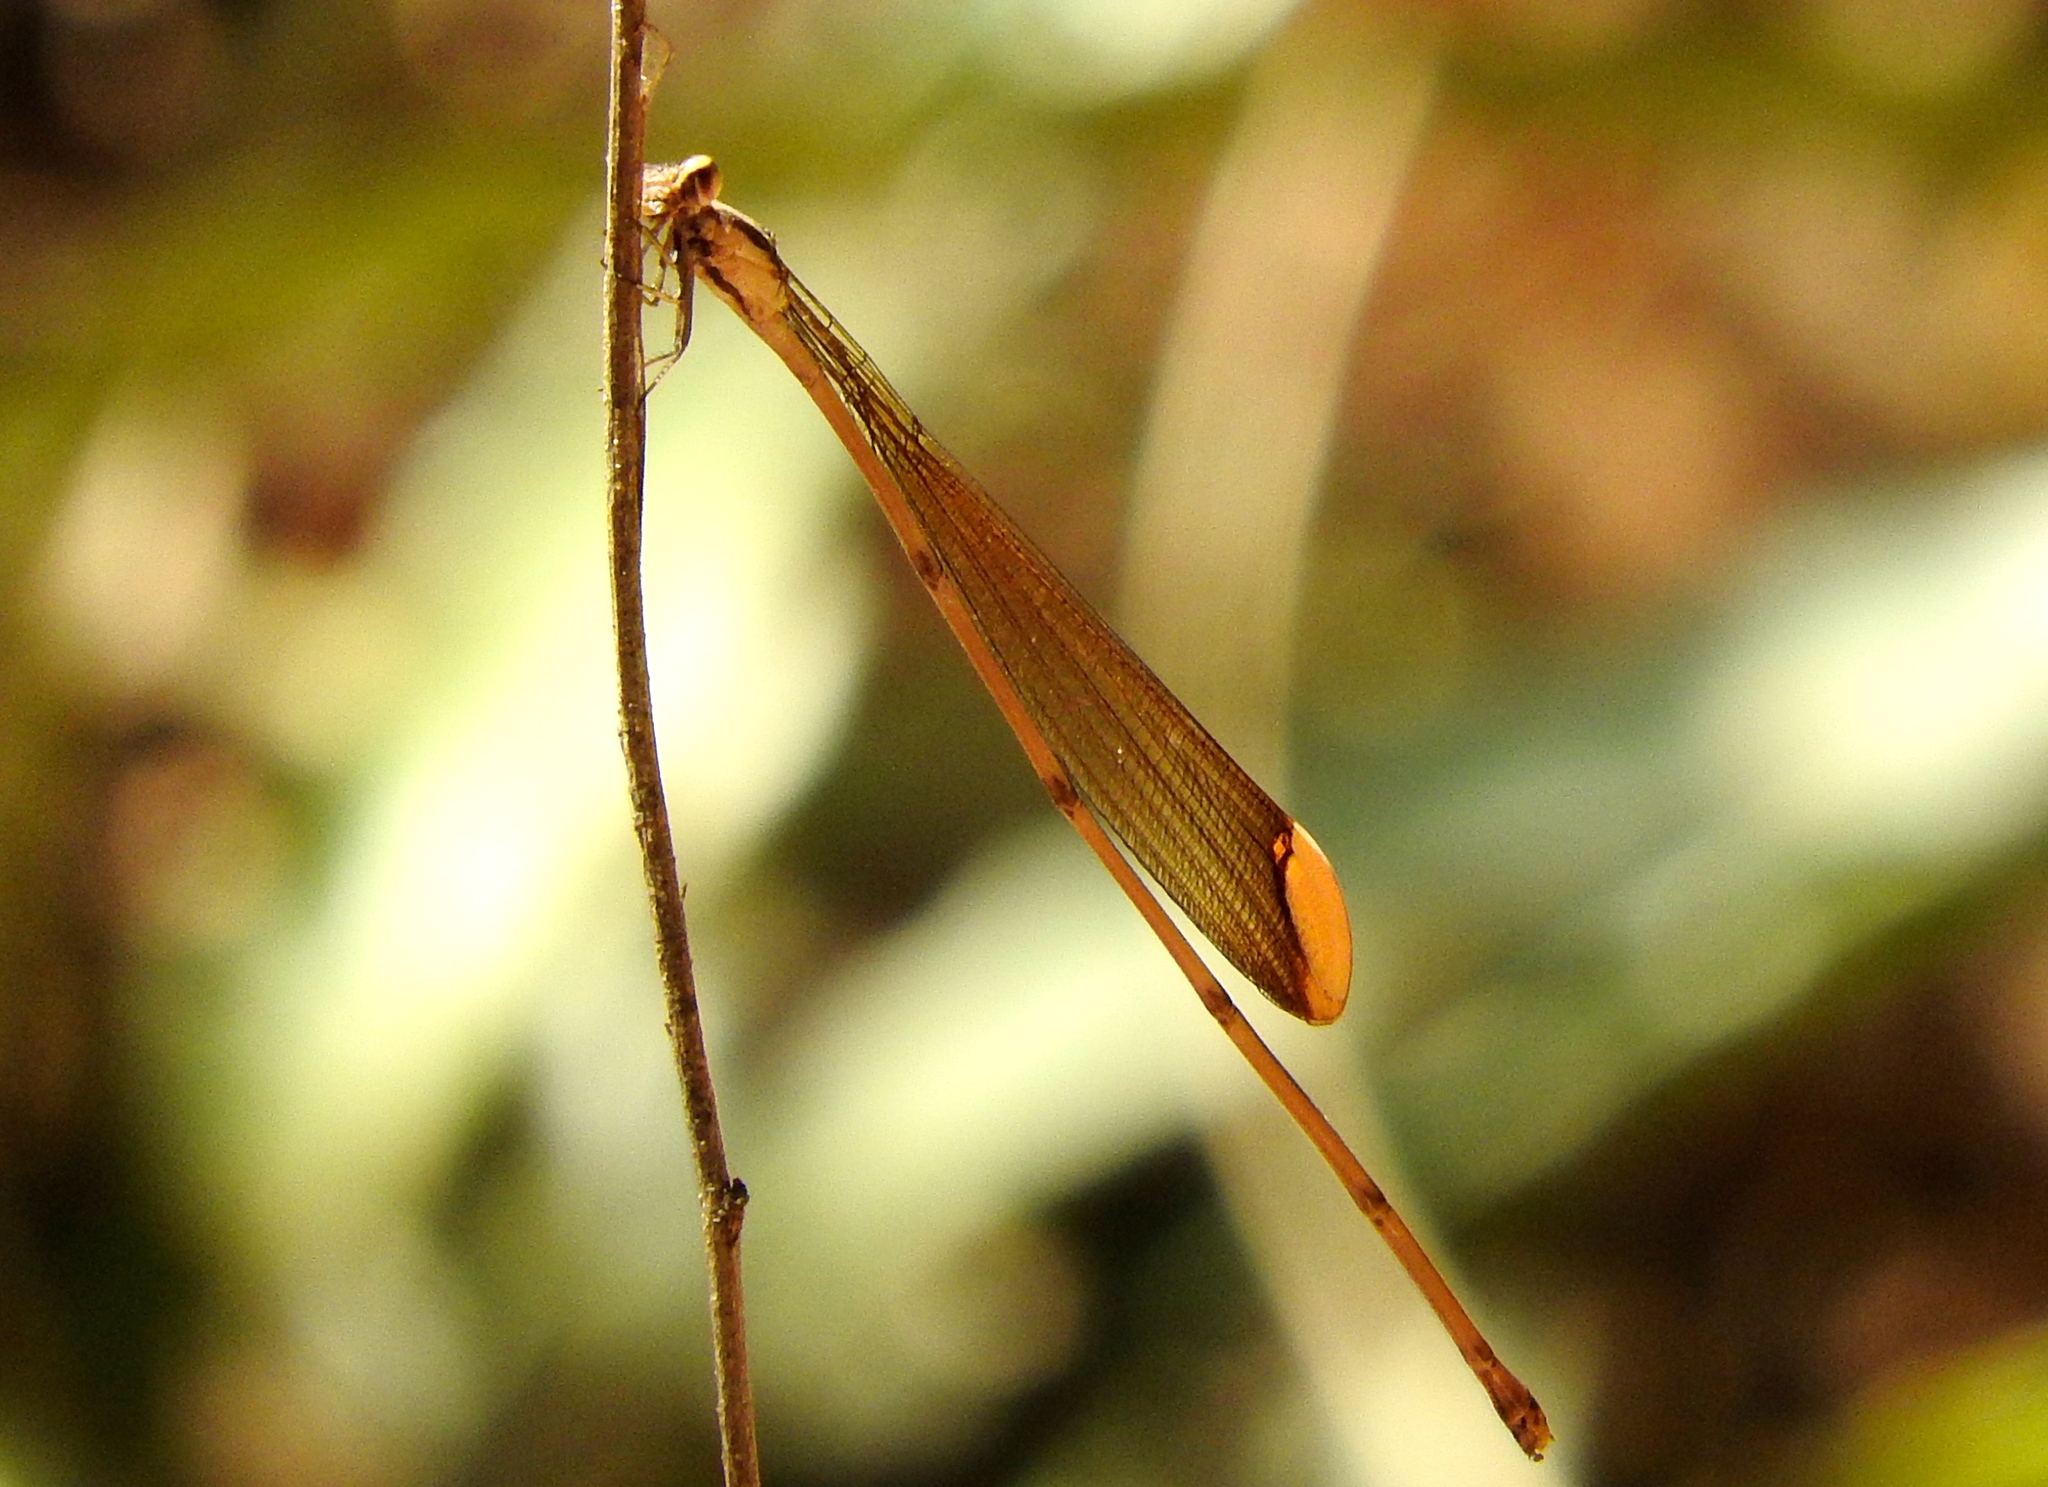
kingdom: Animalia
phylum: Arthropoda
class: Insecta
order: Odonata
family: Coenagrionidae
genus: Mecistogaster
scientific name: Mecistogaster ornata
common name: Ornate helicopter
